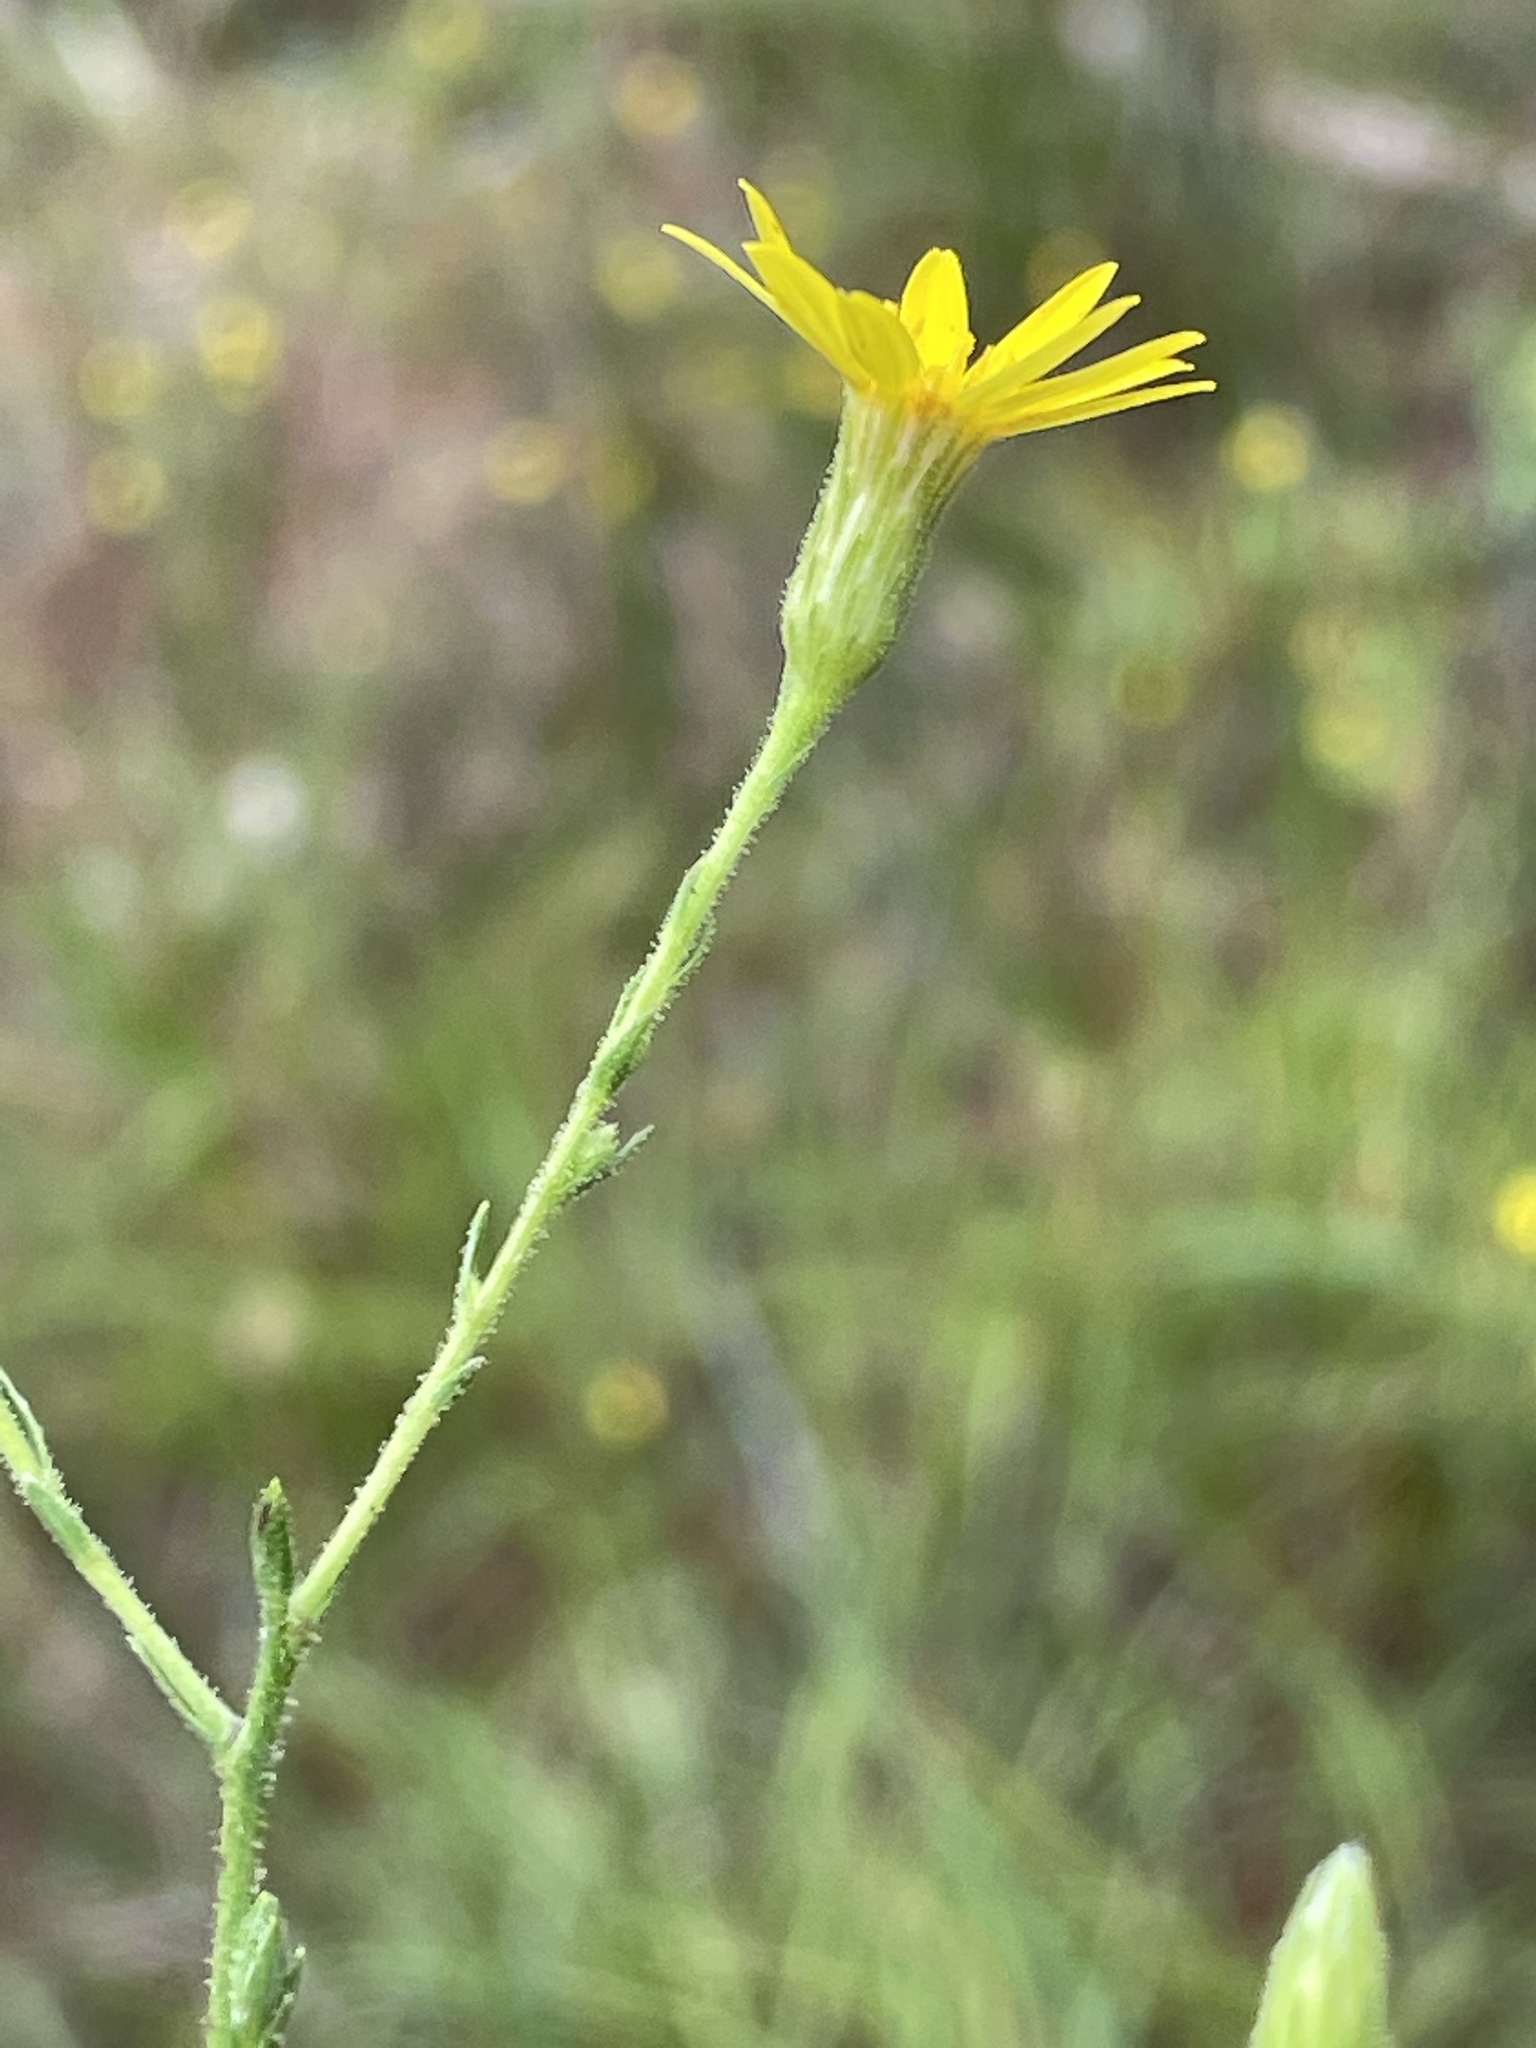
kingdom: Plantae
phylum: Tracheophyta
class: Magnoliopsida
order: Asterales
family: Asteraceae
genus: Pityopsis
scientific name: Pityopsis aspera
